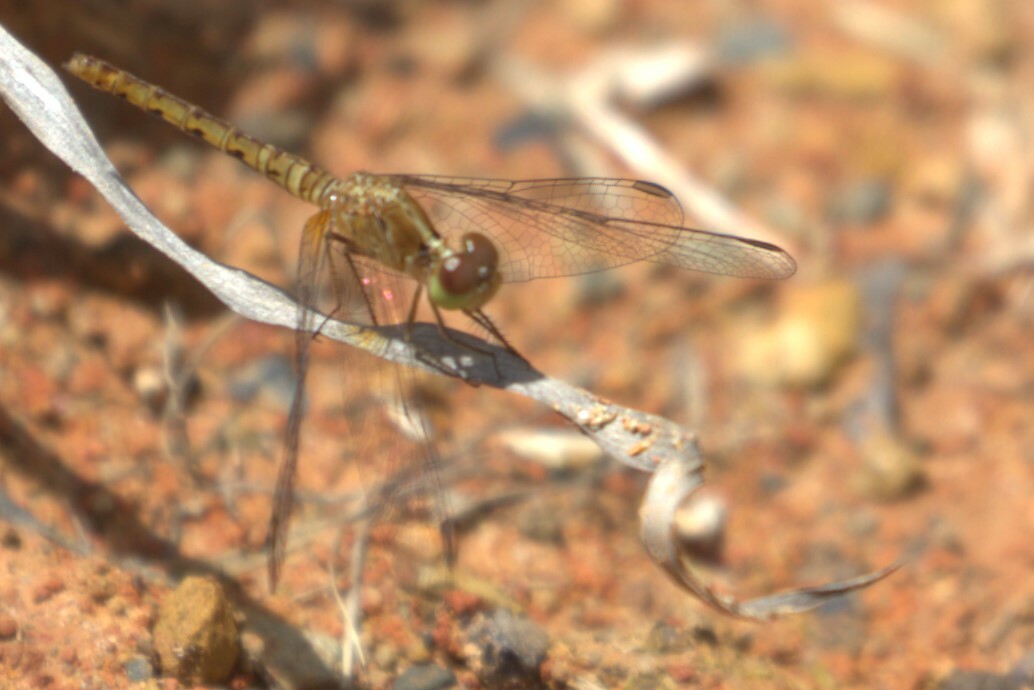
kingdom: Animalia
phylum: Arthropoda
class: Insecta
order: Odonata
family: Libellulidae
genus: Nannodiplax
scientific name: Nannodiplax rubra
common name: Pygmy percher
